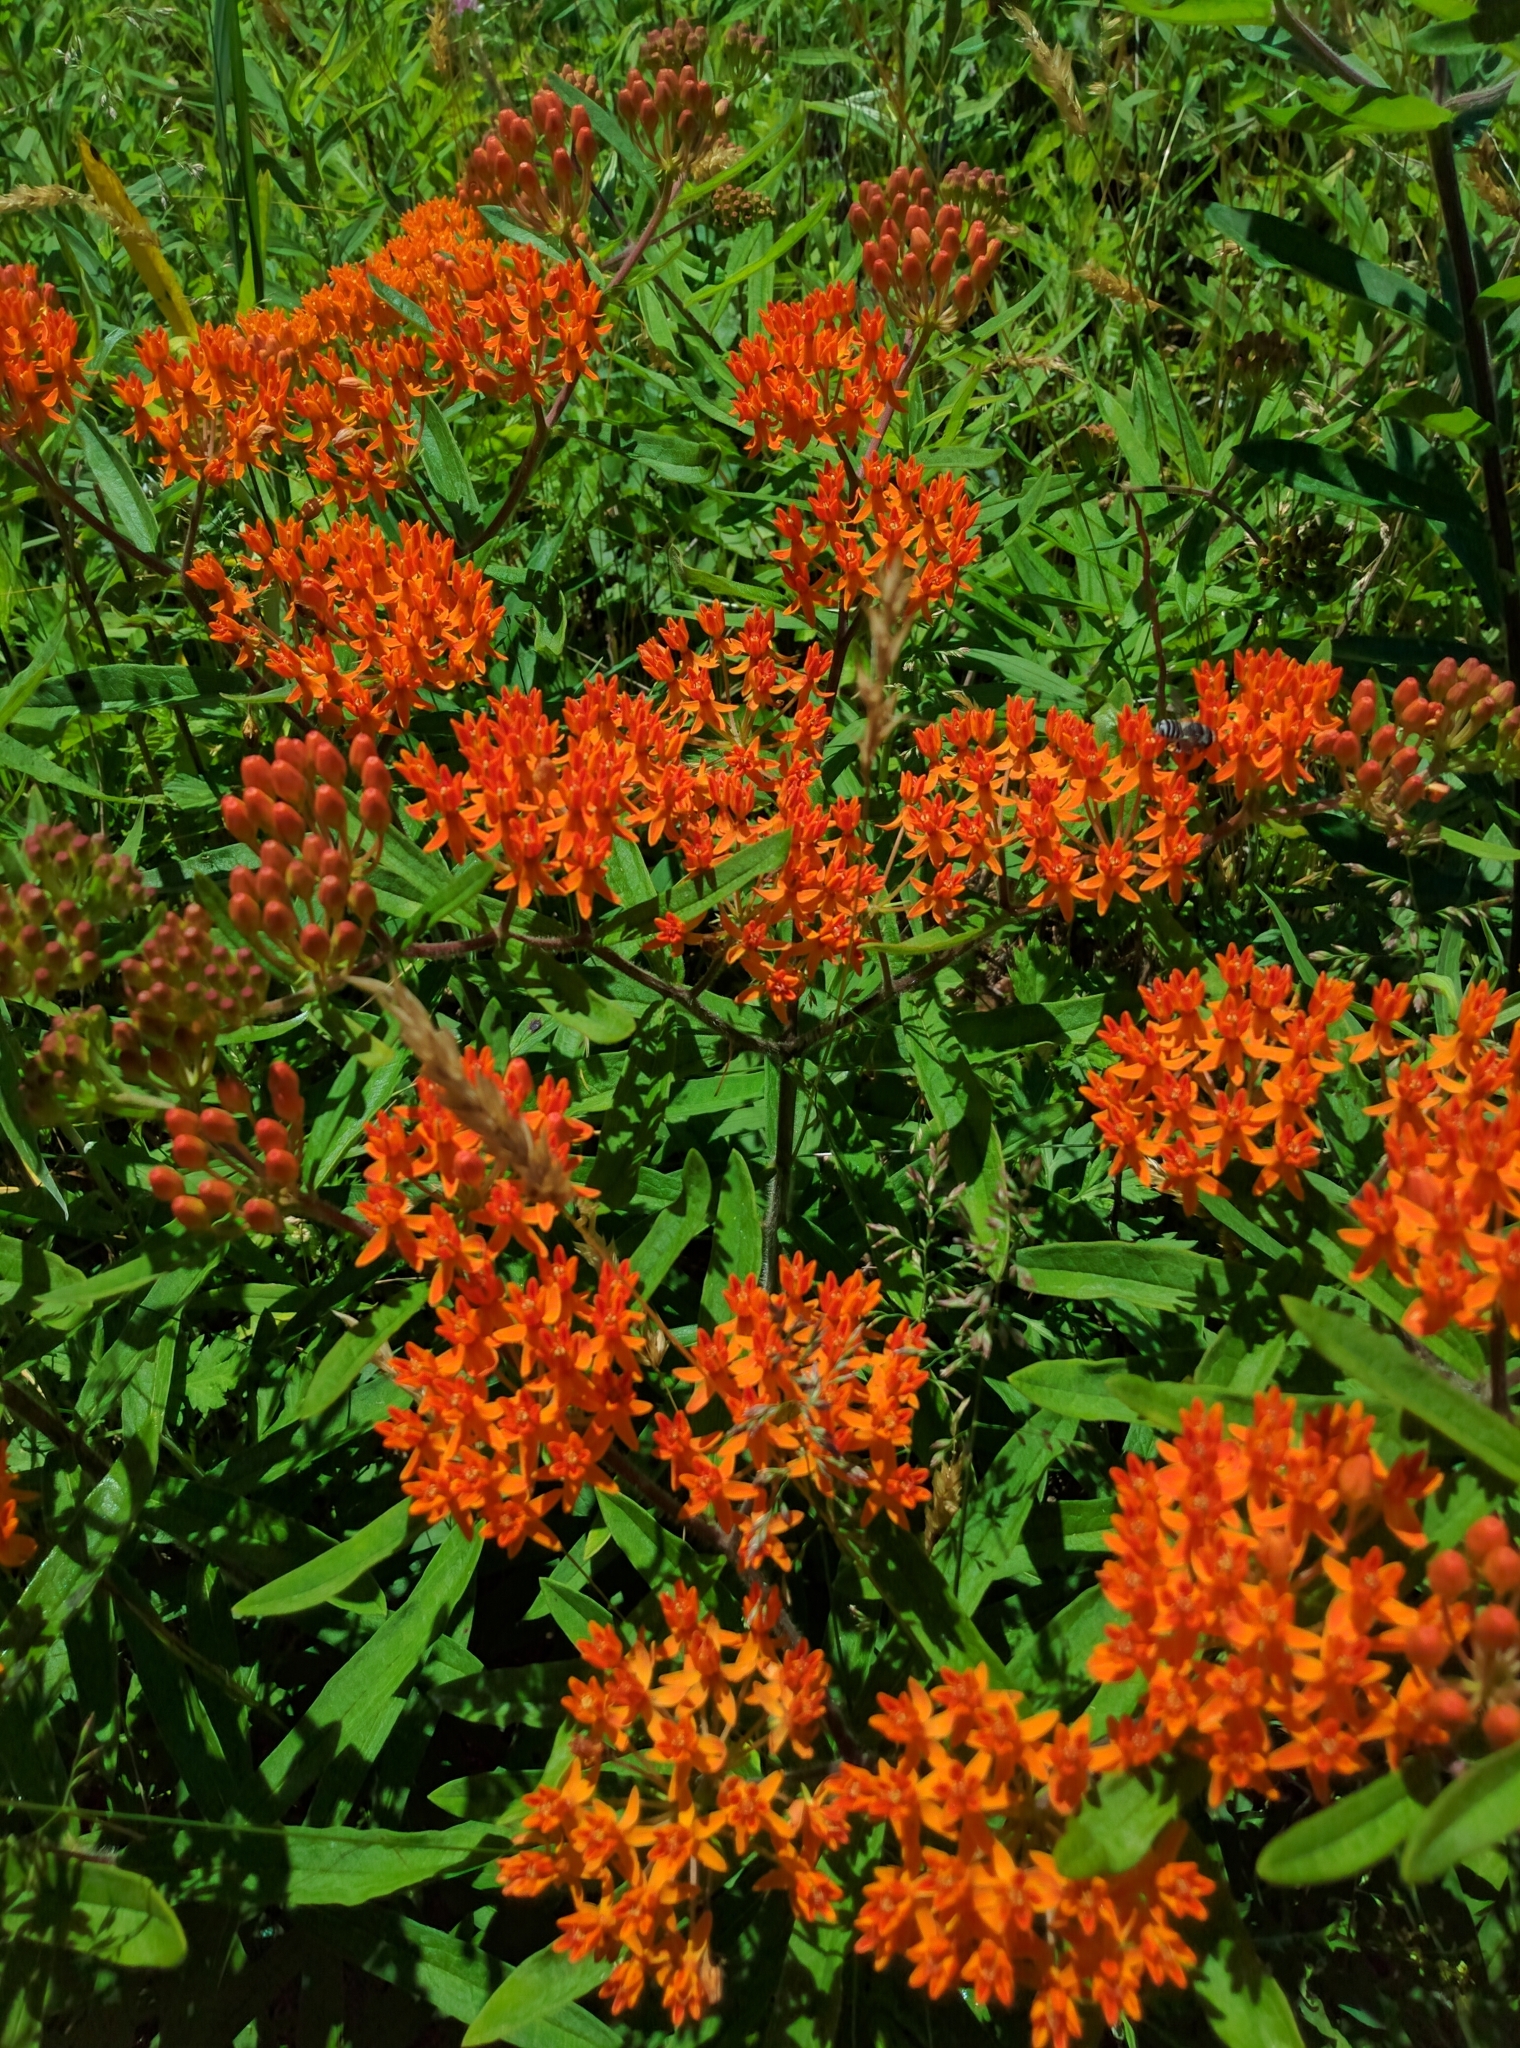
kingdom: Plantae
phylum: Tracheophyta
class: Magnoliopsida
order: Gentianales
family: Apocynaceae
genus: Asclepias
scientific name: Asclepias tuberosa
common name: Butterfly milkweed
